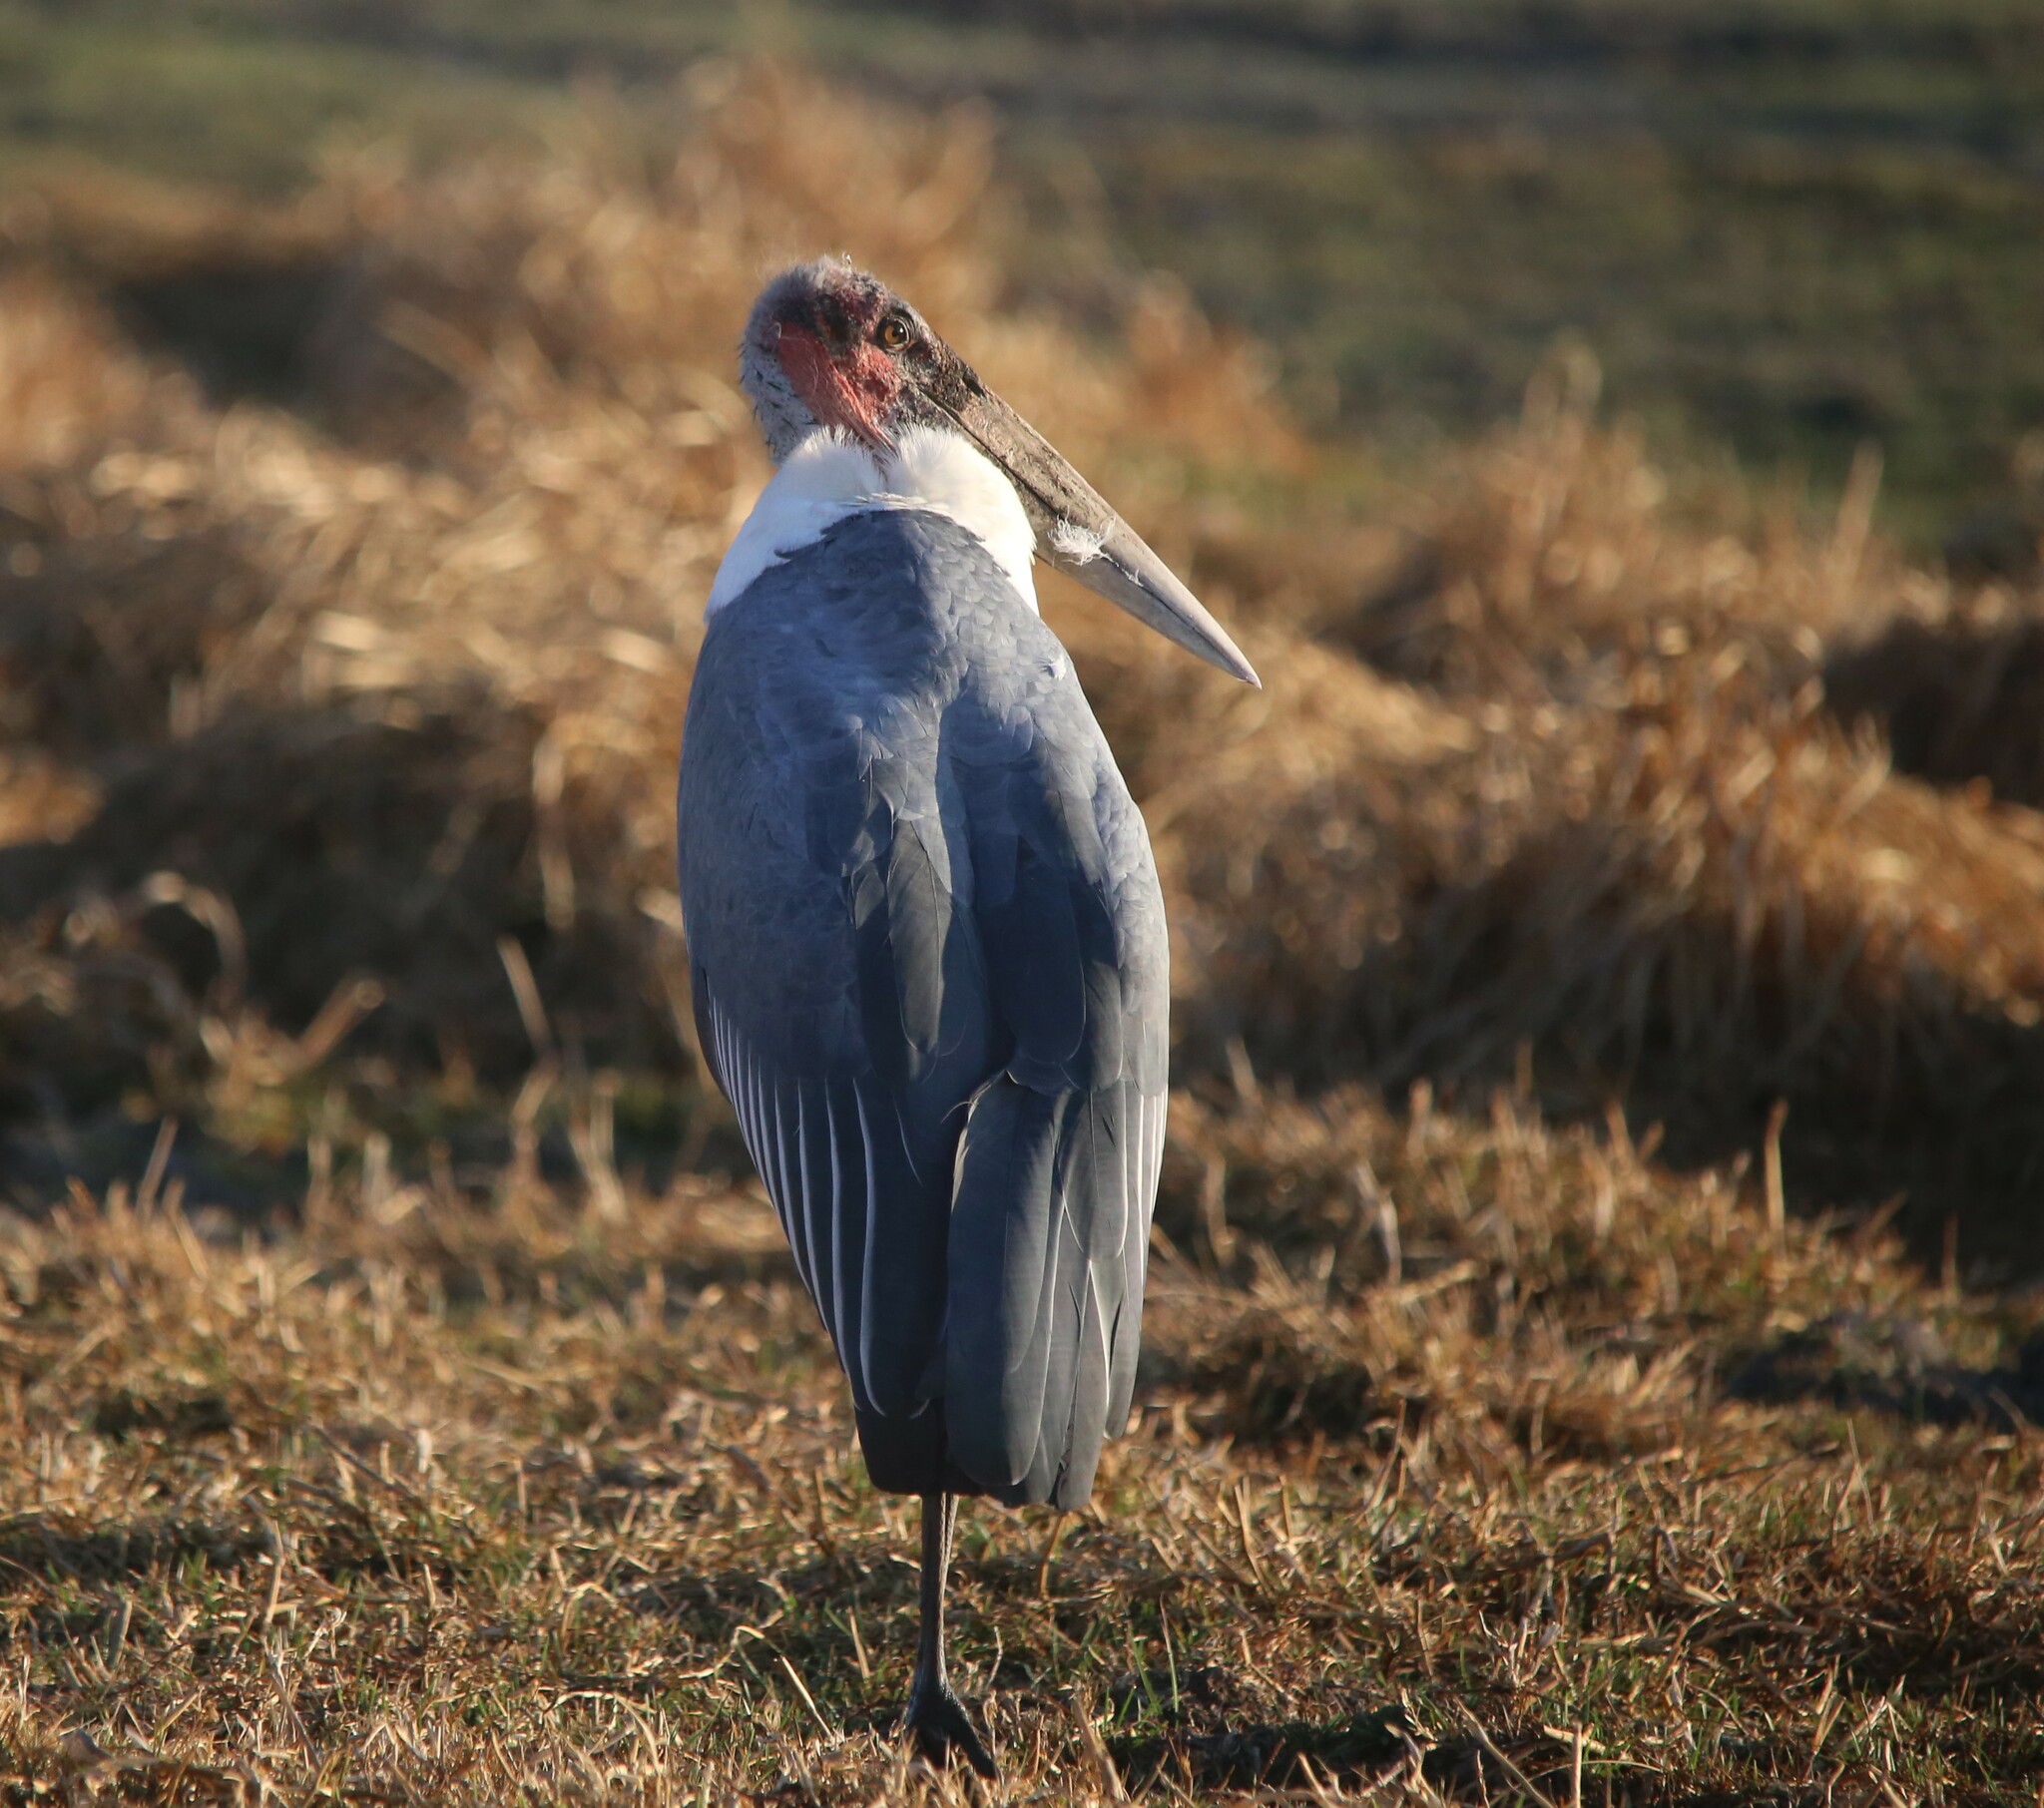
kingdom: Animalia
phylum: Chordata
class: Aves
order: Ciconiiformes
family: Ciconiidae
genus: Leptoptilos
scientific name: Leptoptilos crumenifer
